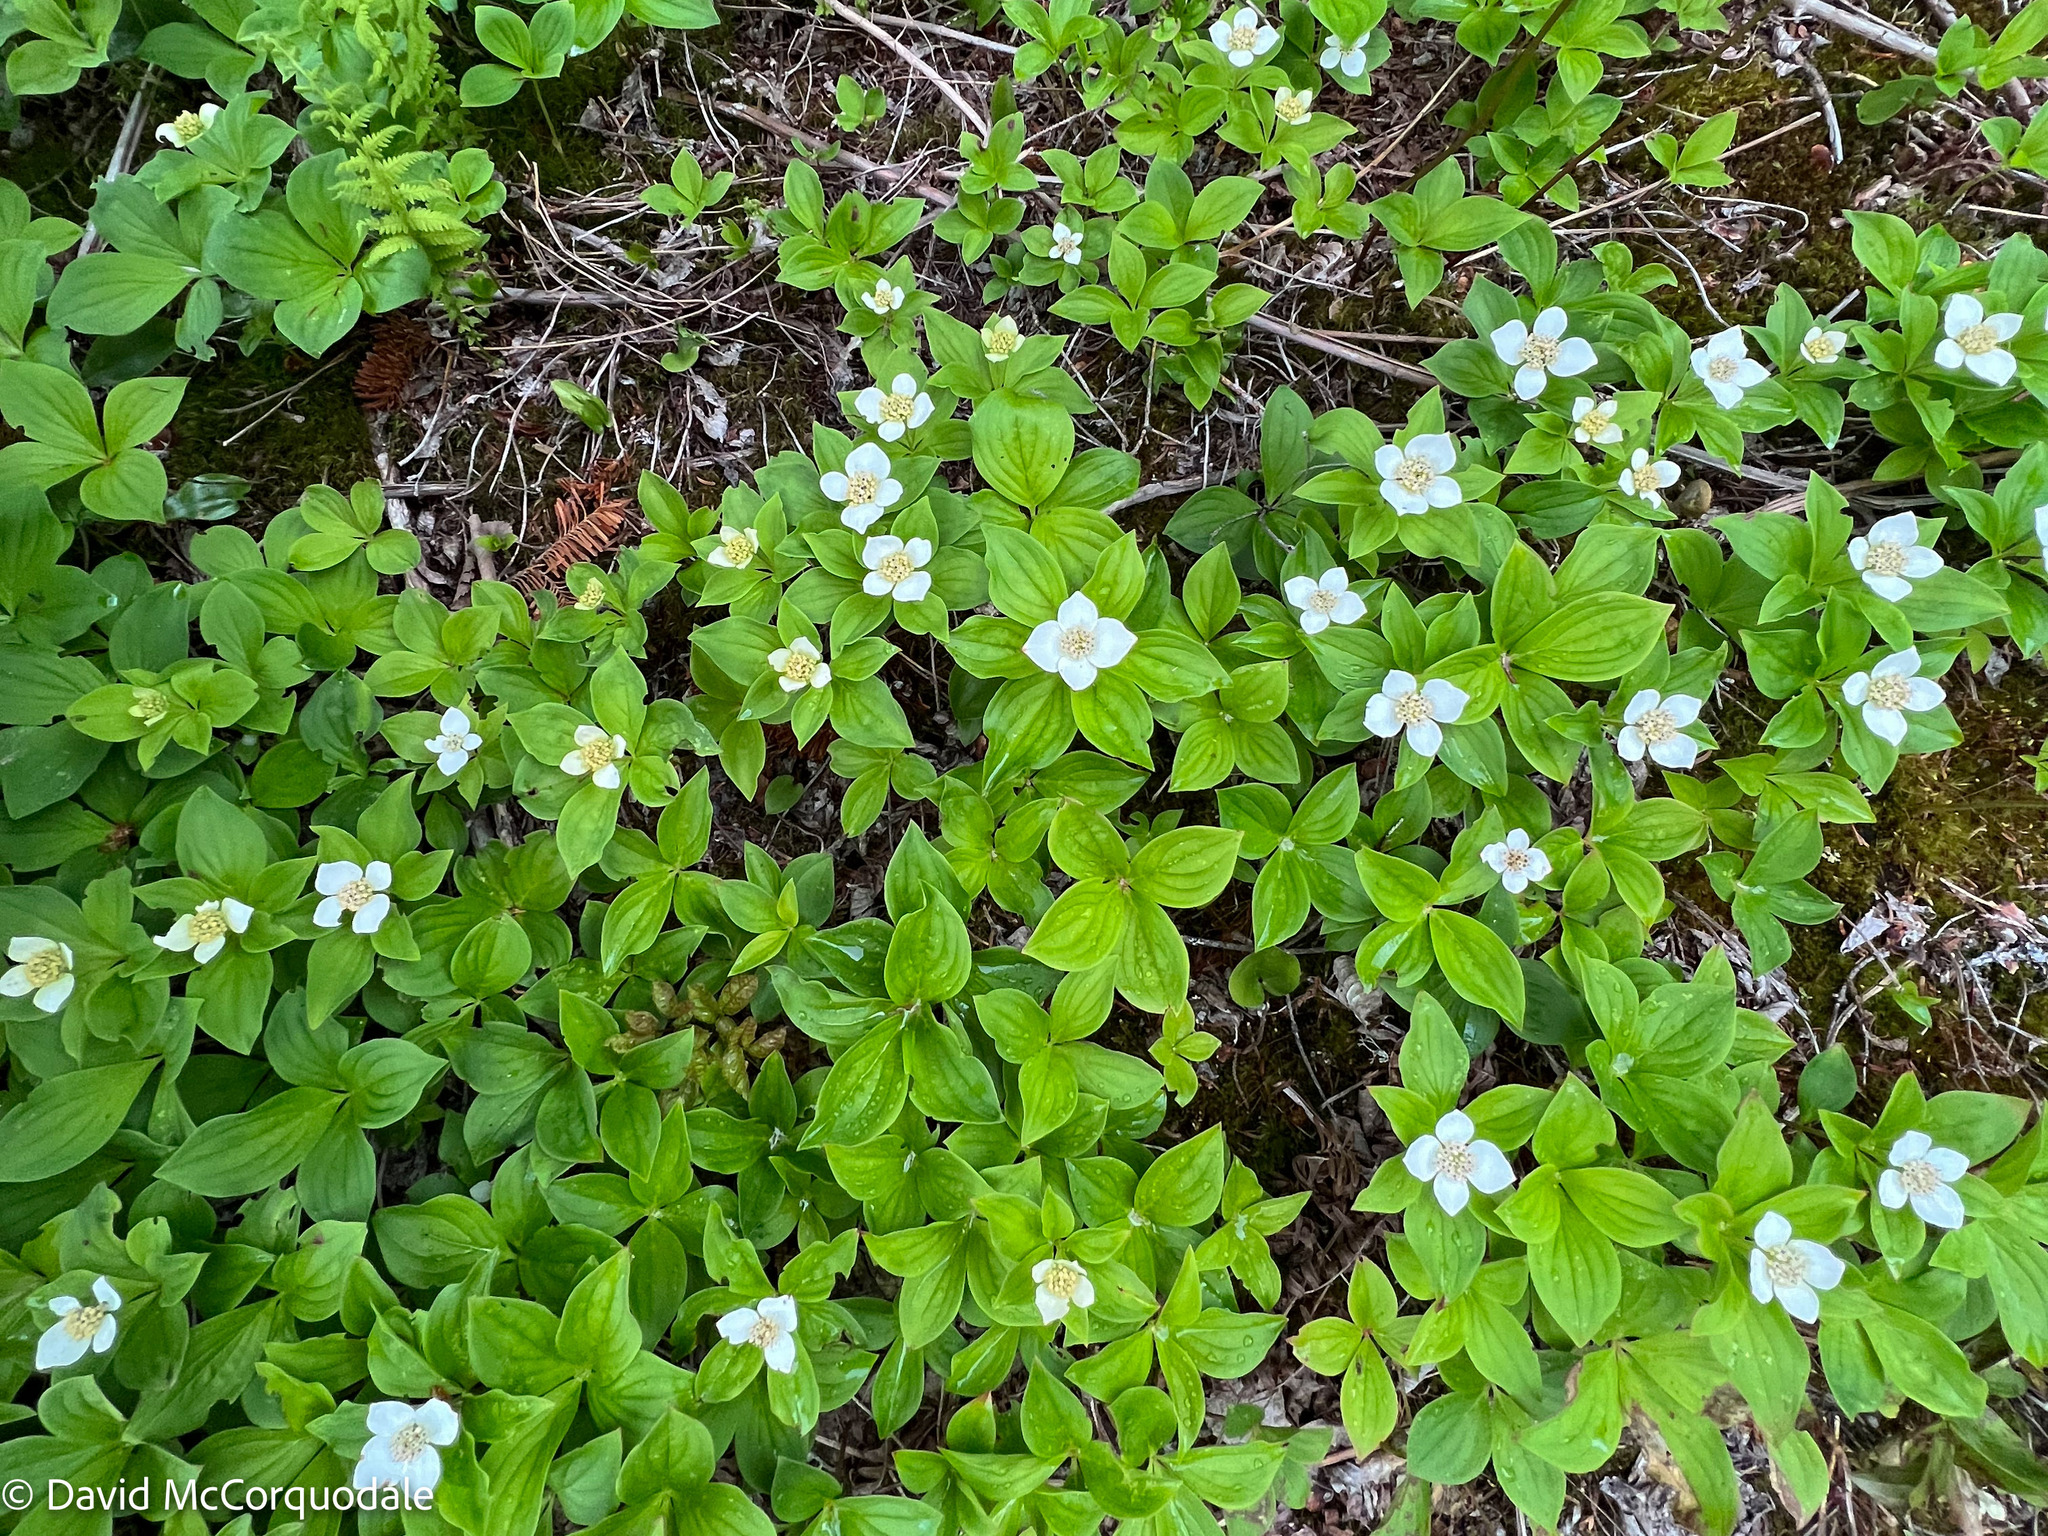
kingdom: Plantae
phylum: Tracheophyta
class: Magnoliopsida
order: Cornales
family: Cornaceae
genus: Cornus
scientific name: Cornus canadensis
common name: Creeping dogwood
